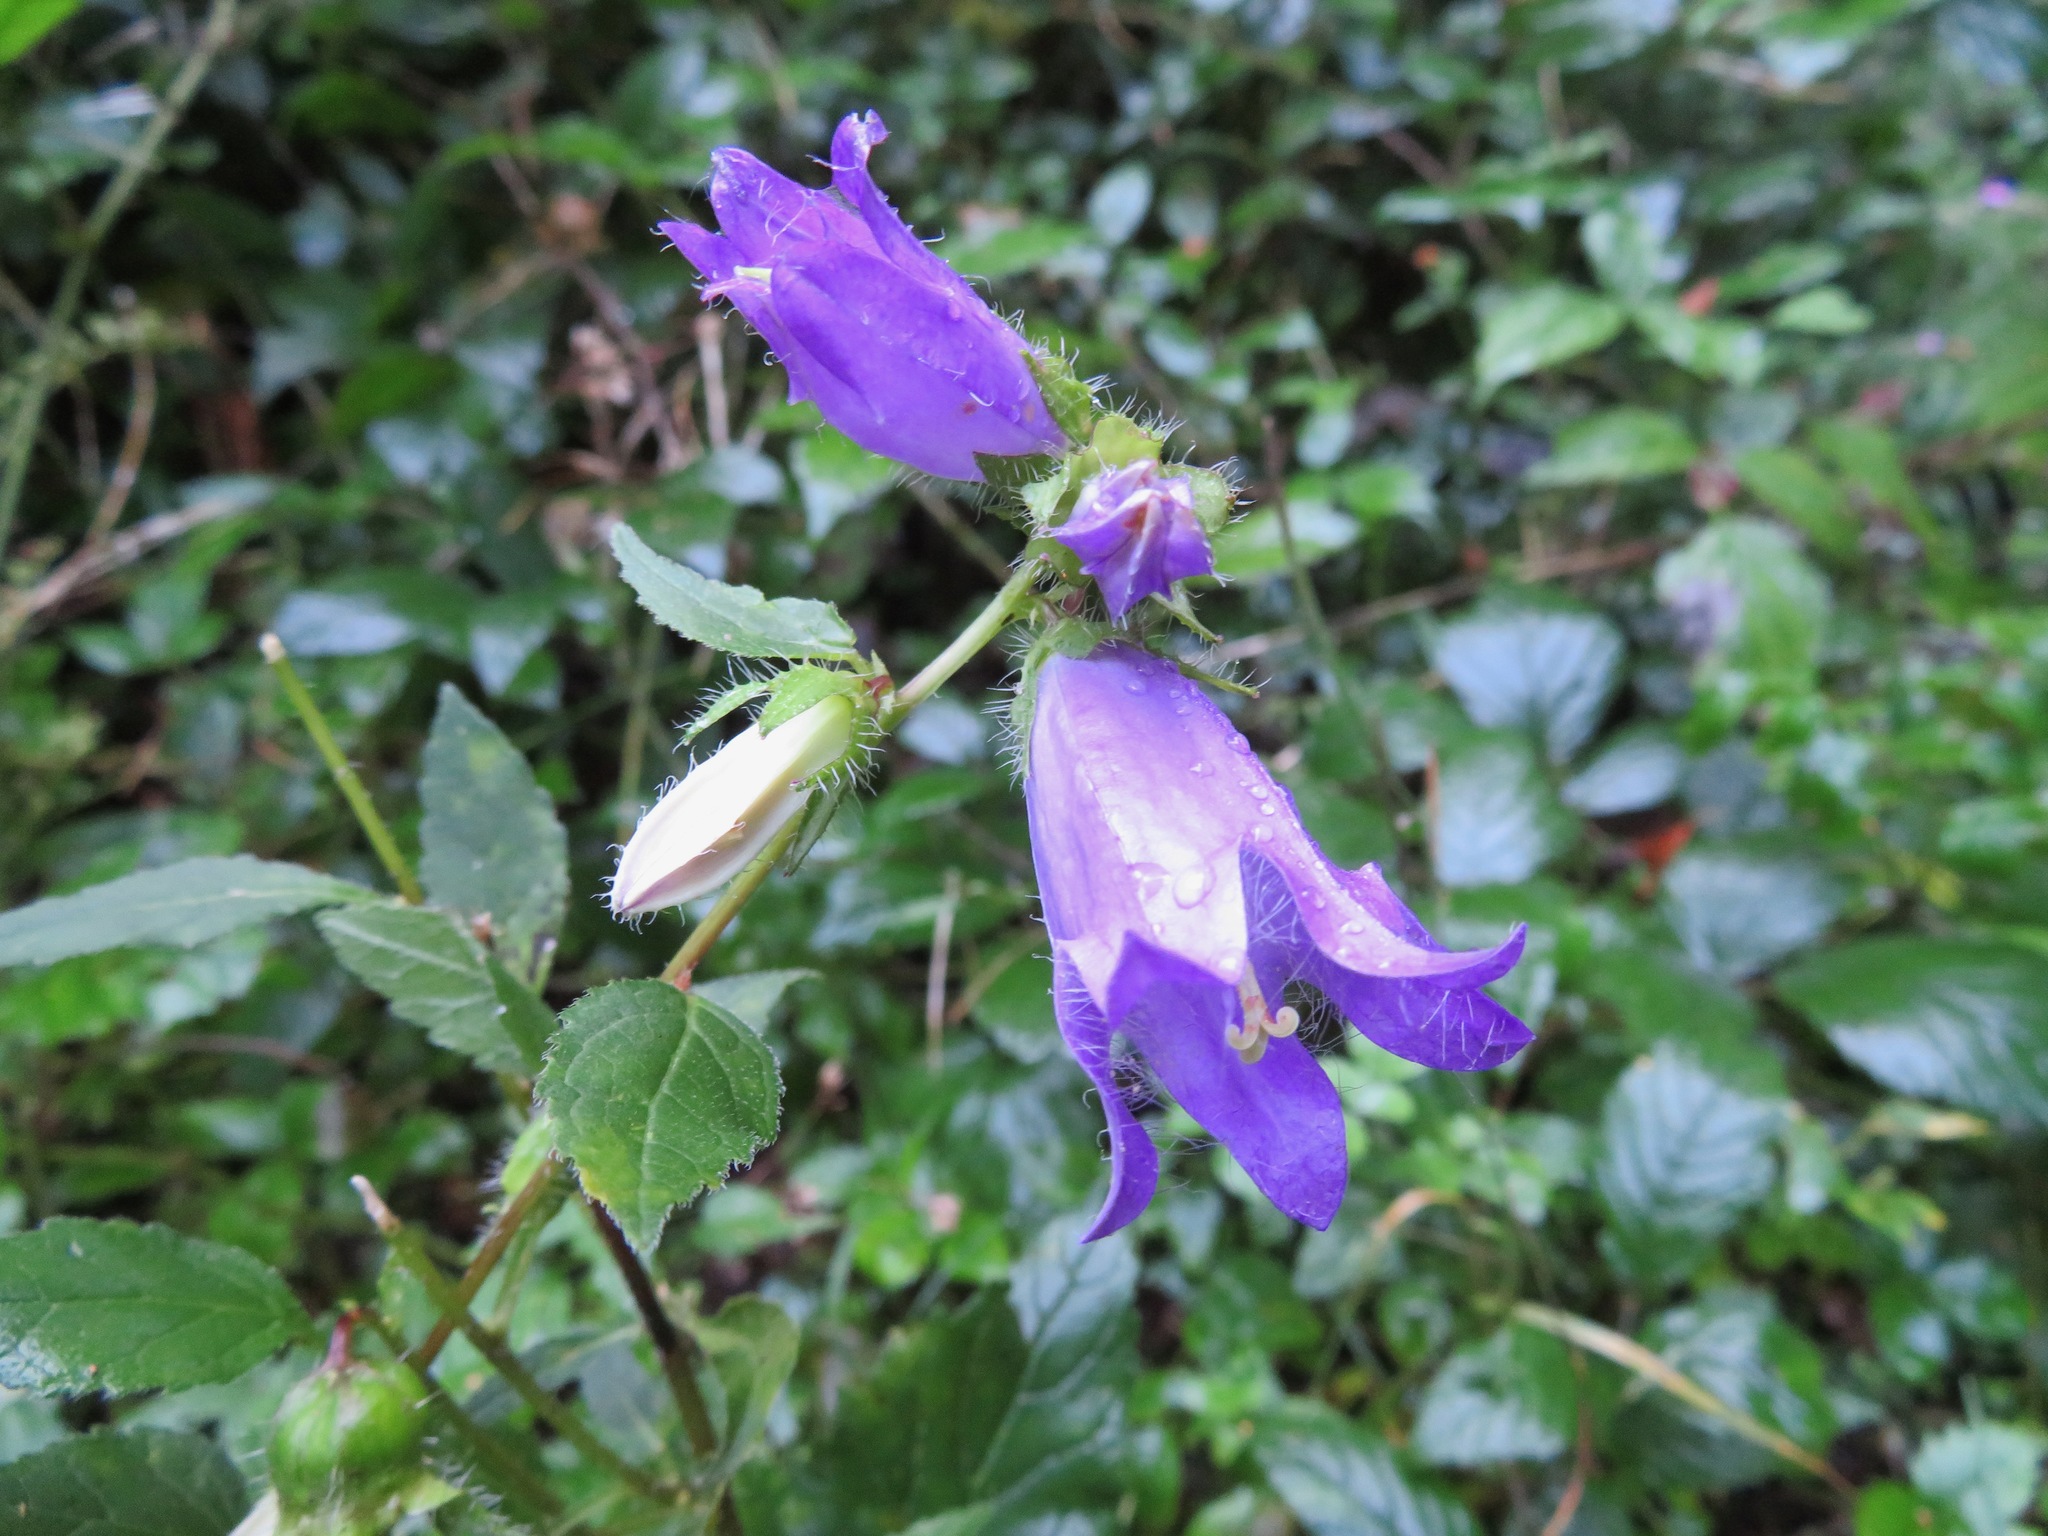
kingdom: Plantae
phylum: Tracheophyta
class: Magnoliopsida
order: Asterales
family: Campanulaceae
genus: Campanula
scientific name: Campanula trachelium
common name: Nettle-leaved bellflower
